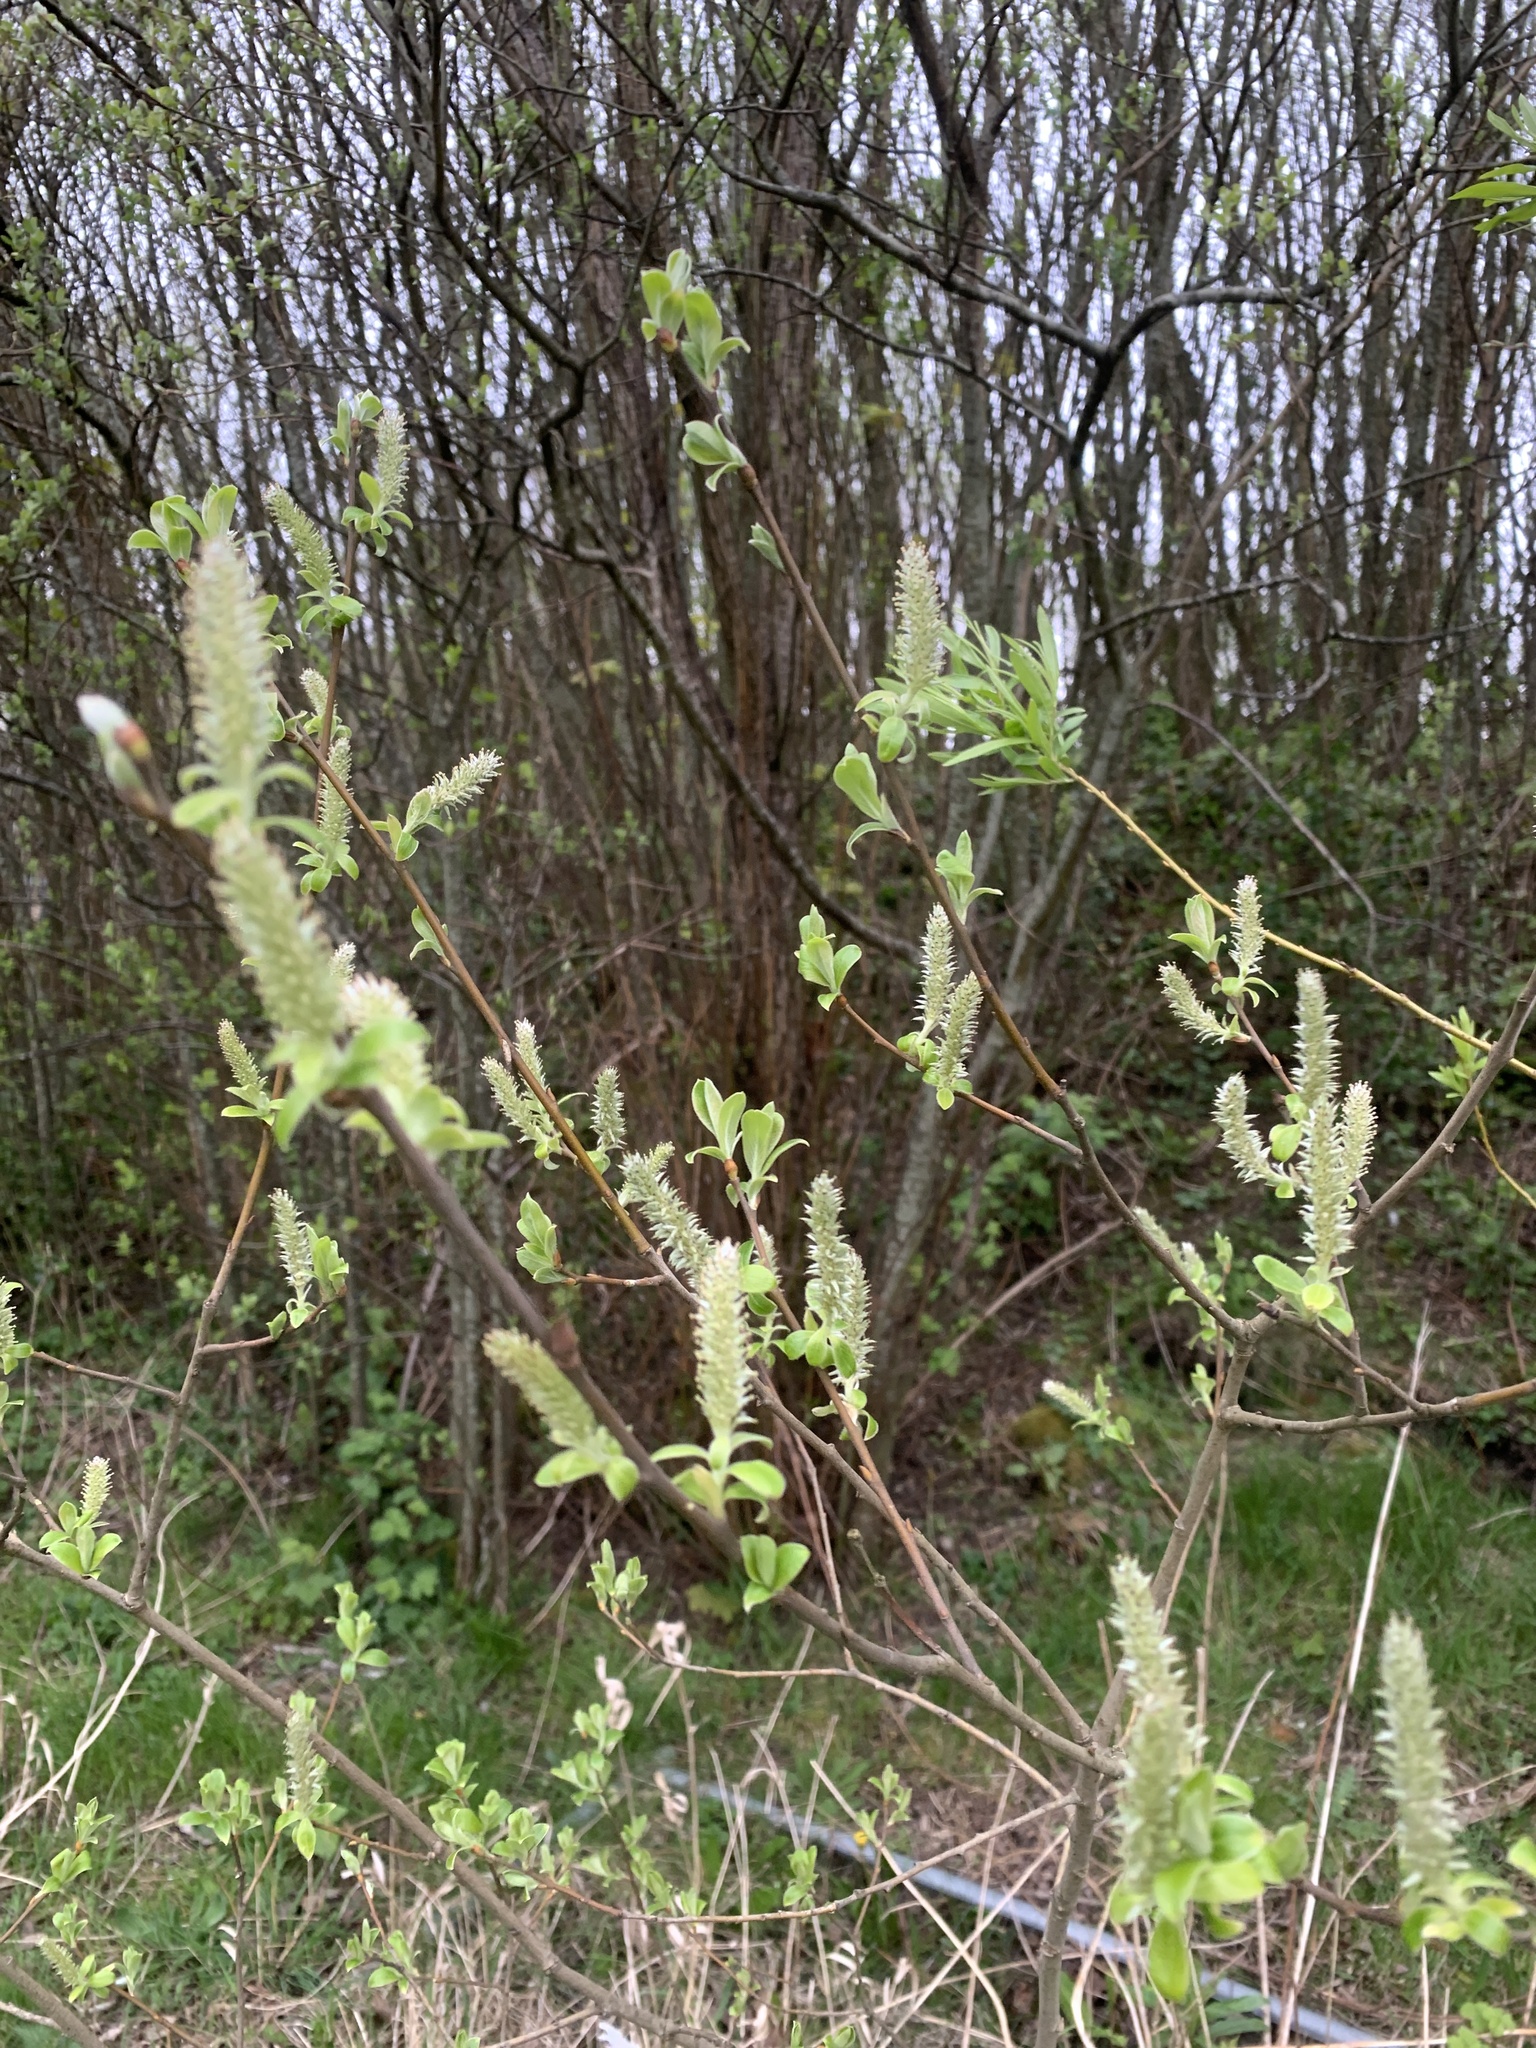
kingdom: Plantae
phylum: Tracheophyta
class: Magnoliopsida
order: Malpighiales
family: Salicaceae
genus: Salix
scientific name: Salix atrocinerea
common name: Rusty willow
